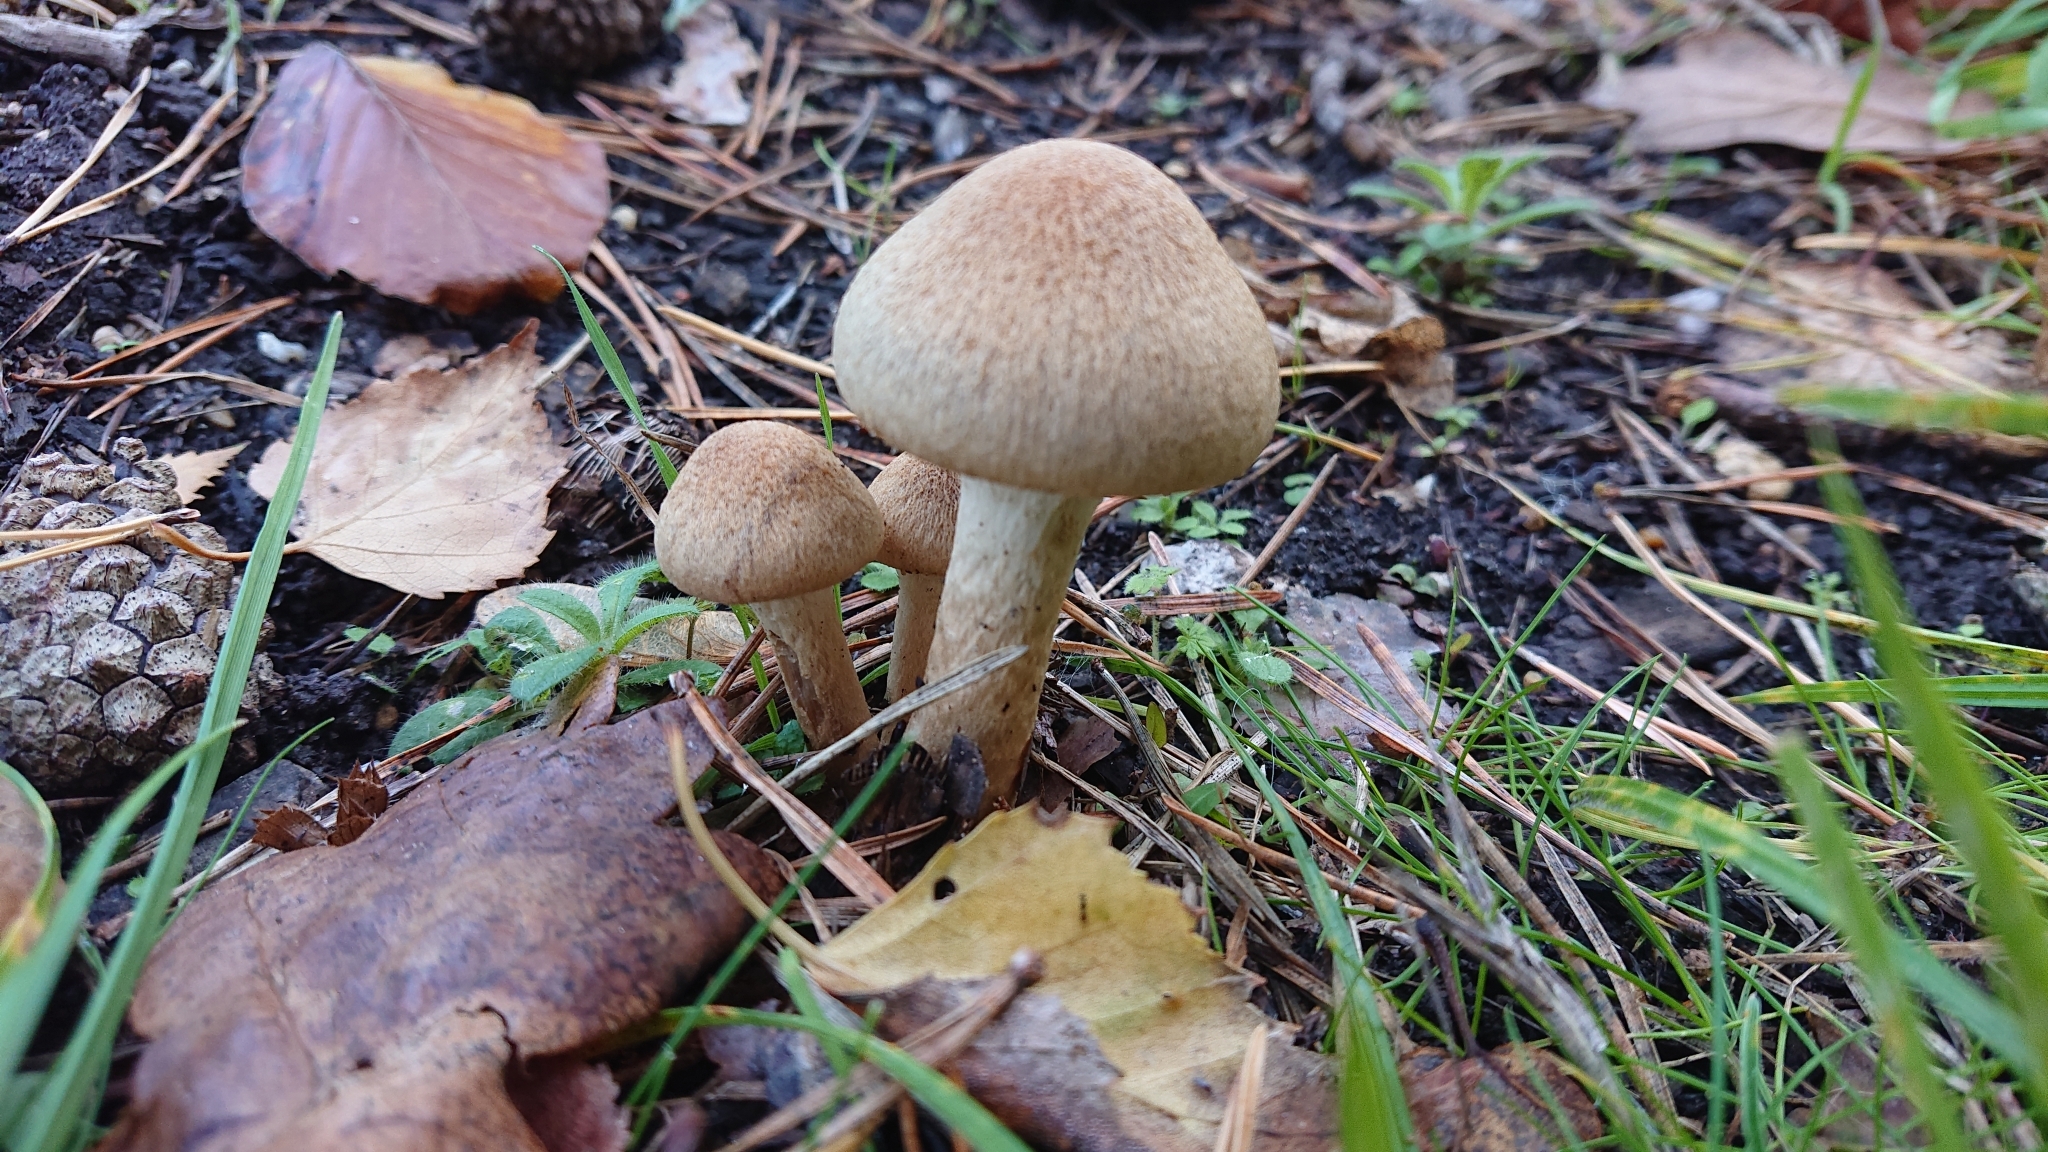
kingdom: Fungi
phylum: Basidiomycota
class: Agaricomycetes
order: Agaricales
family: Psathyrellaceae
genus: Lacrymaria
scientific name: Lacrymaria lacrymabunda
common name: Weeping widow
